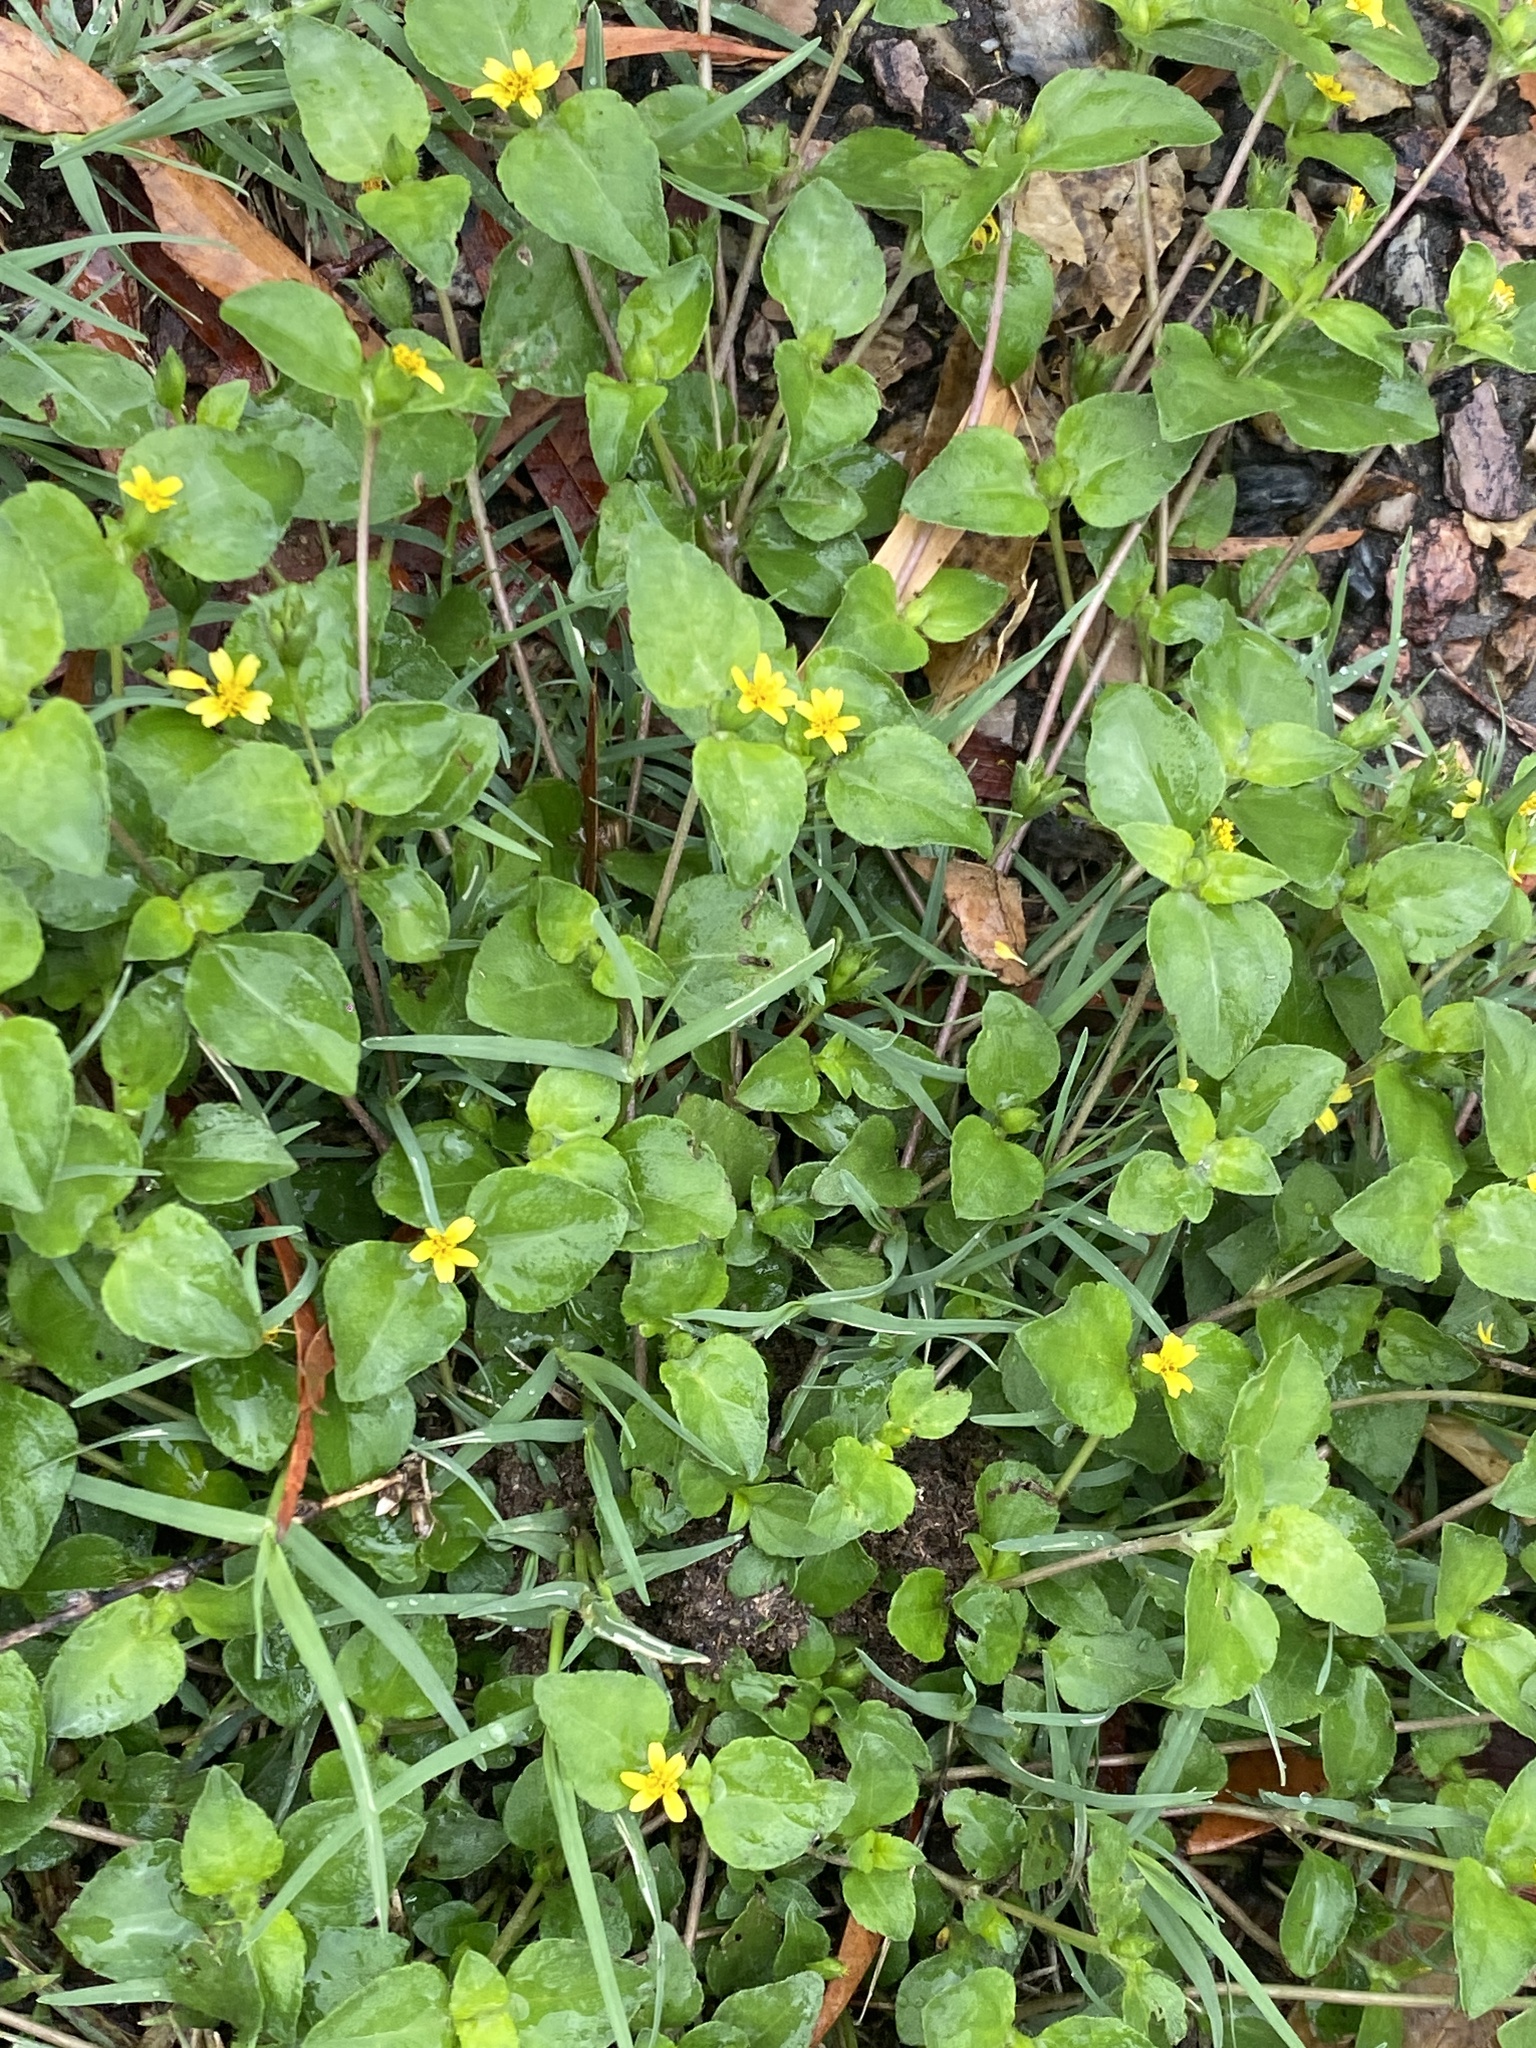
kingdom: Plantae
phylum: Tracheophyta
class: Magnoliopsida
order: Asterales
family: Asteraceae
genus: Calyptocarpus
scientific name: Calyptocarpus vialis
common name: Straggler daisy
